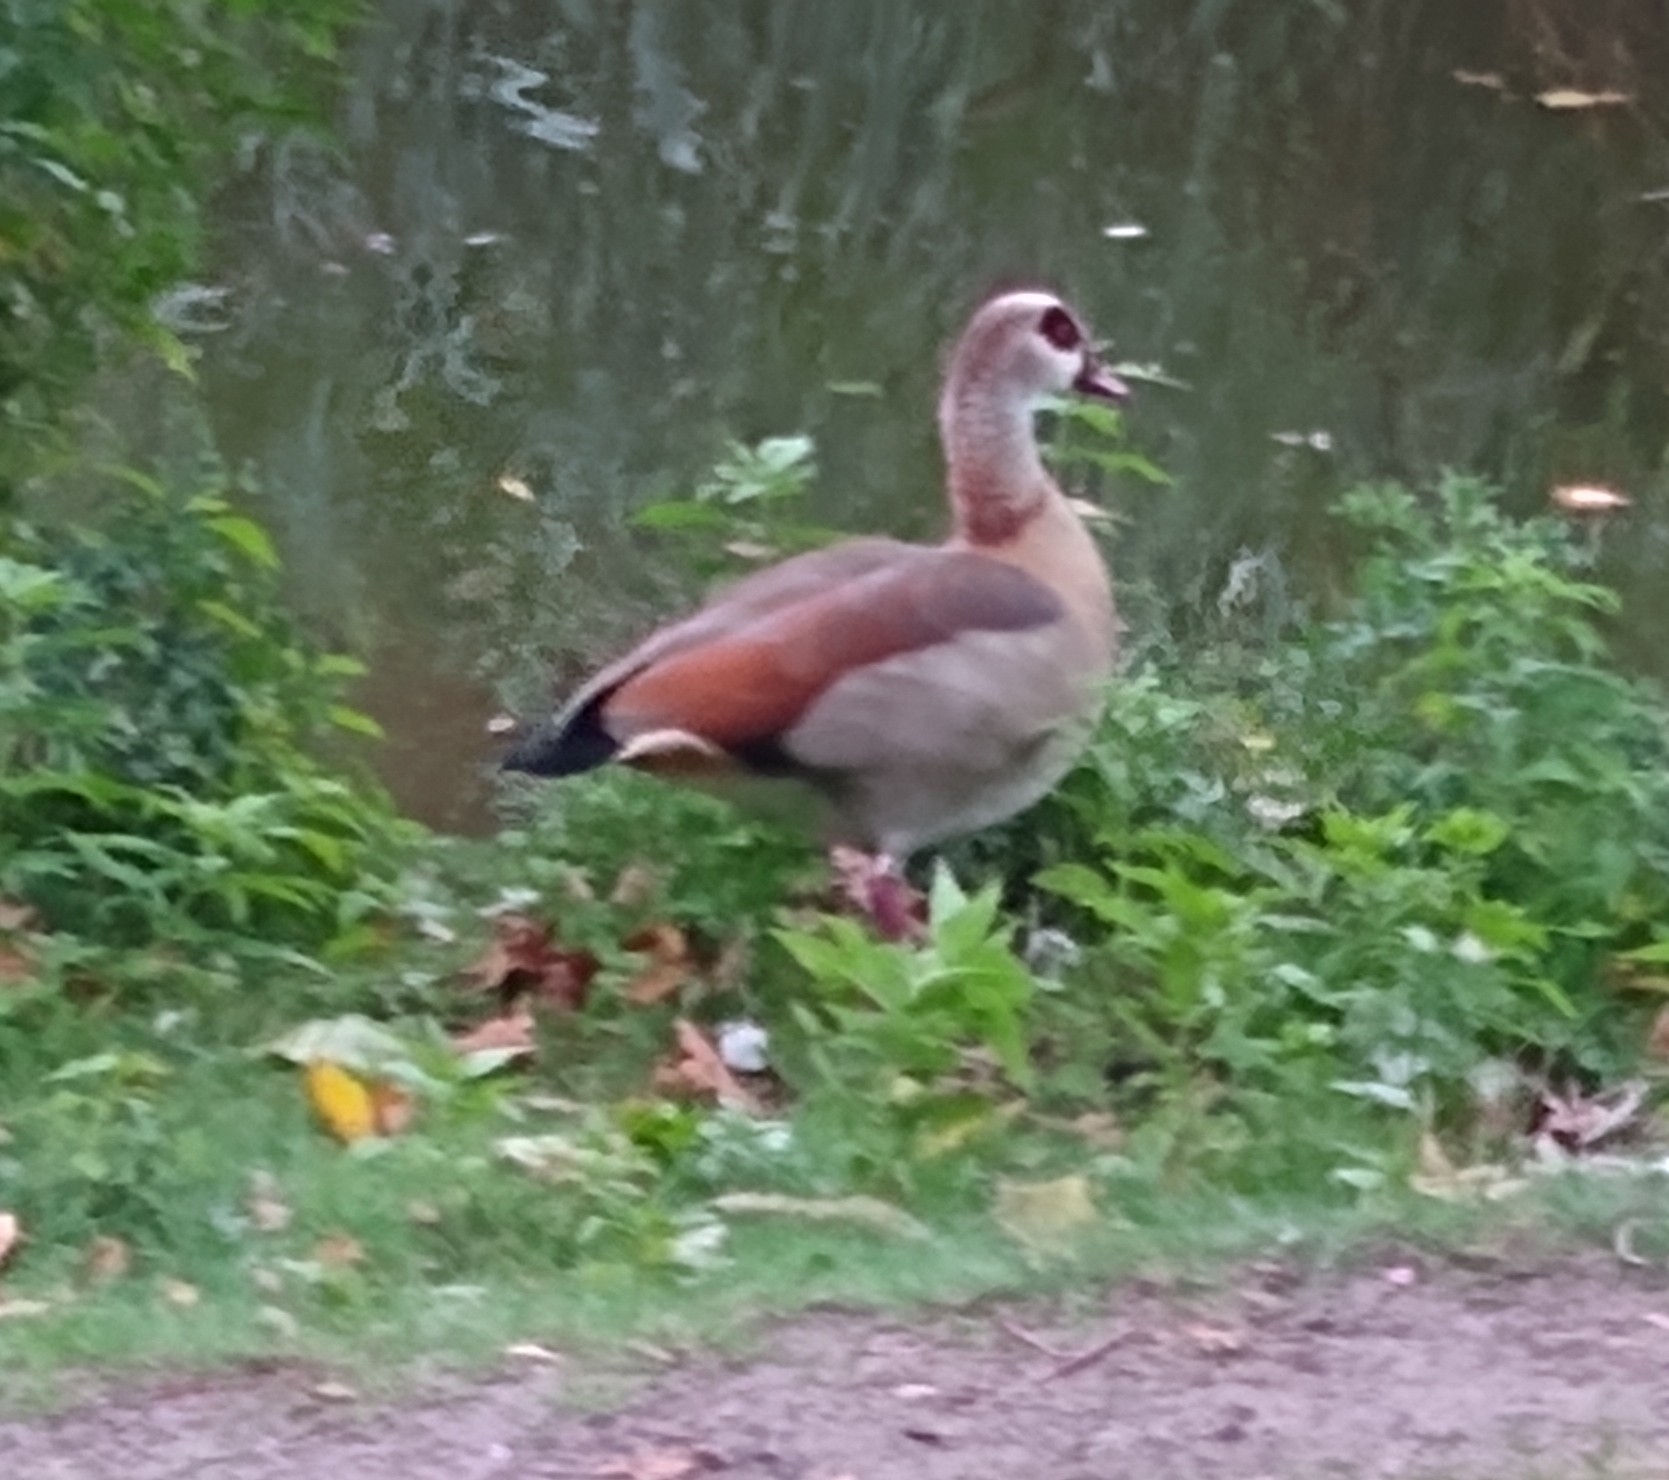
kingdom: Animalia
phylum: Chordata
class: Aves
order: Anseriformes
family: Anatidae
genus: Alopochen
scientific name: Alopochen aegyptiaca
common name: Egyptian goose
